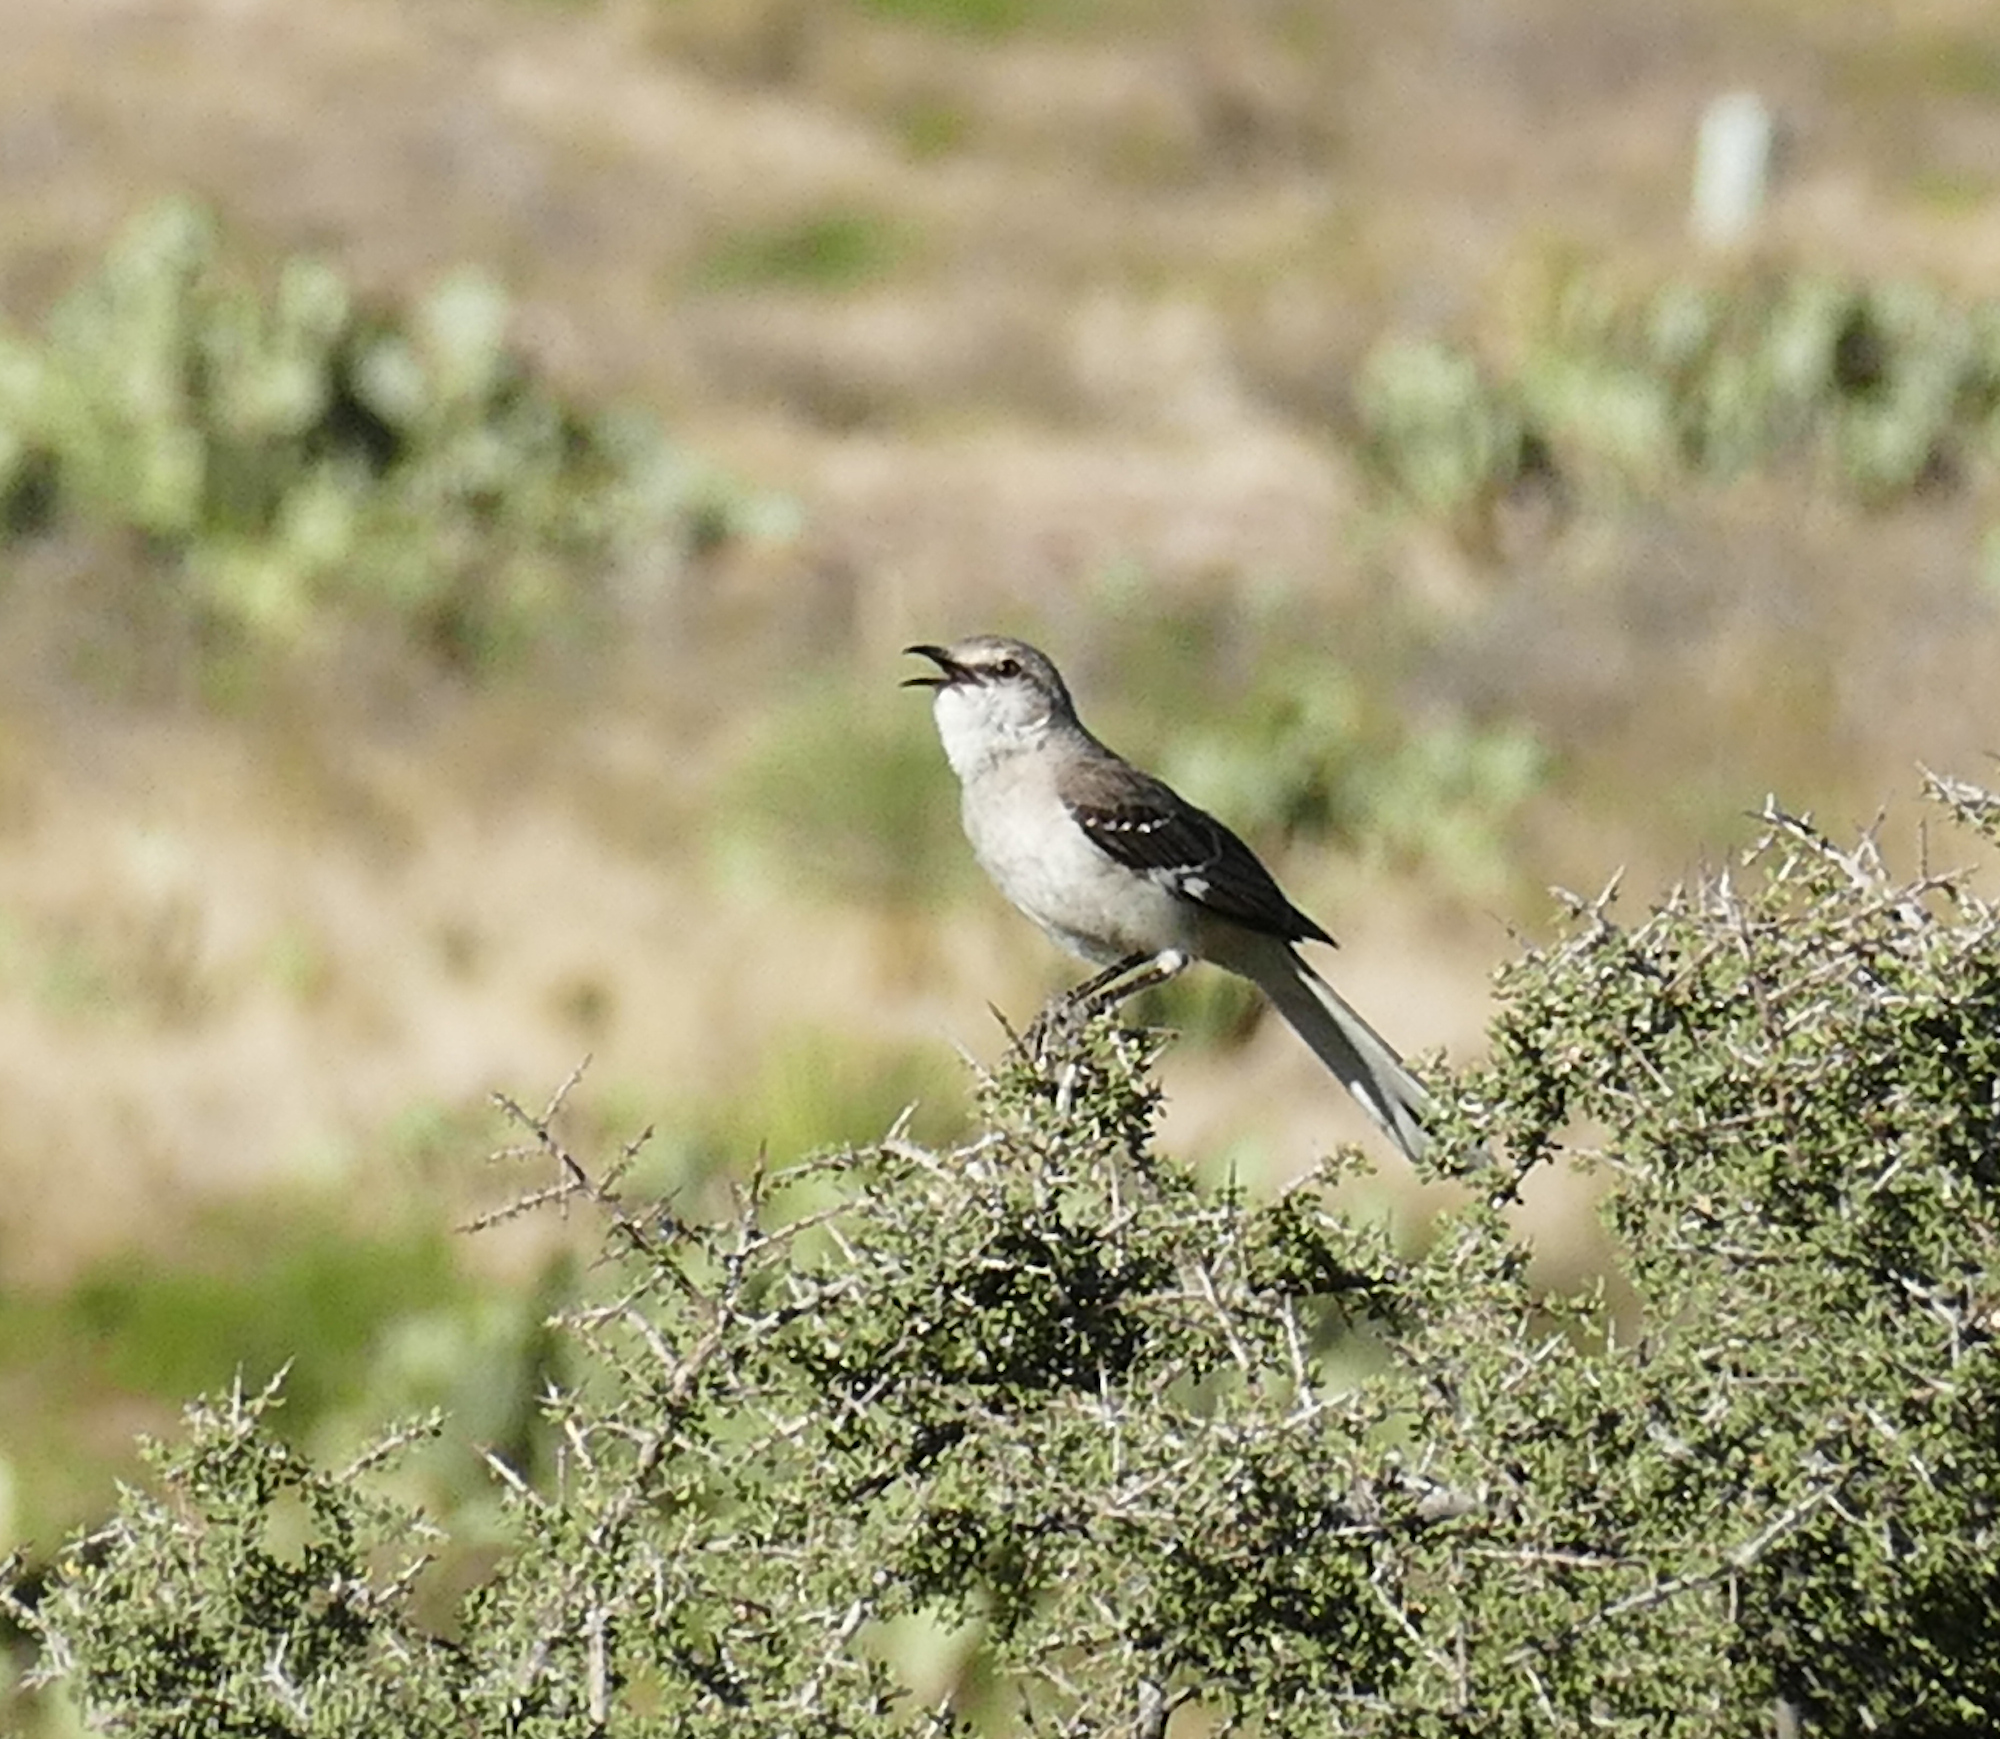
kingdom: Animalia
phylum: Chordata
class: Aves
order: Passeriformes
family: Mimidae
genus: Mimus
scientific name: Mimus polyglottos
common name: Northern mockingbird
